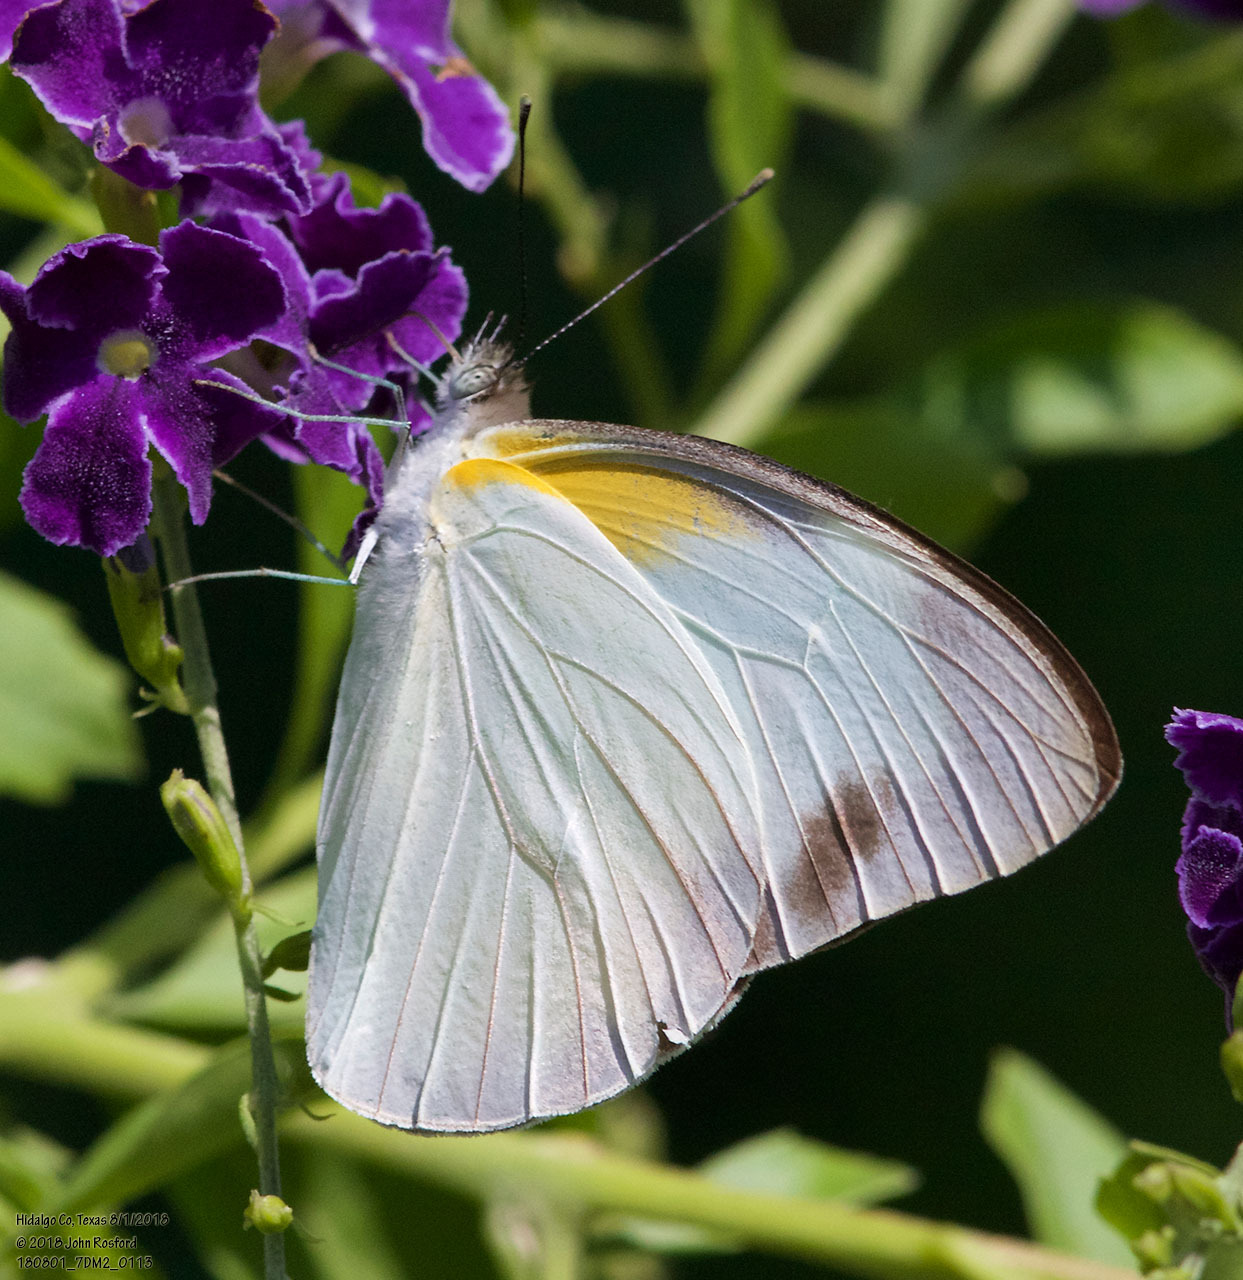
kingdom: Animalia
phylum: Arthropoda
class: Insecta
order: Lepidoptera
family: Pieridae
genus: Glutophrissa
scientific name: Glutophrissa drusilla
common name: Florida white
